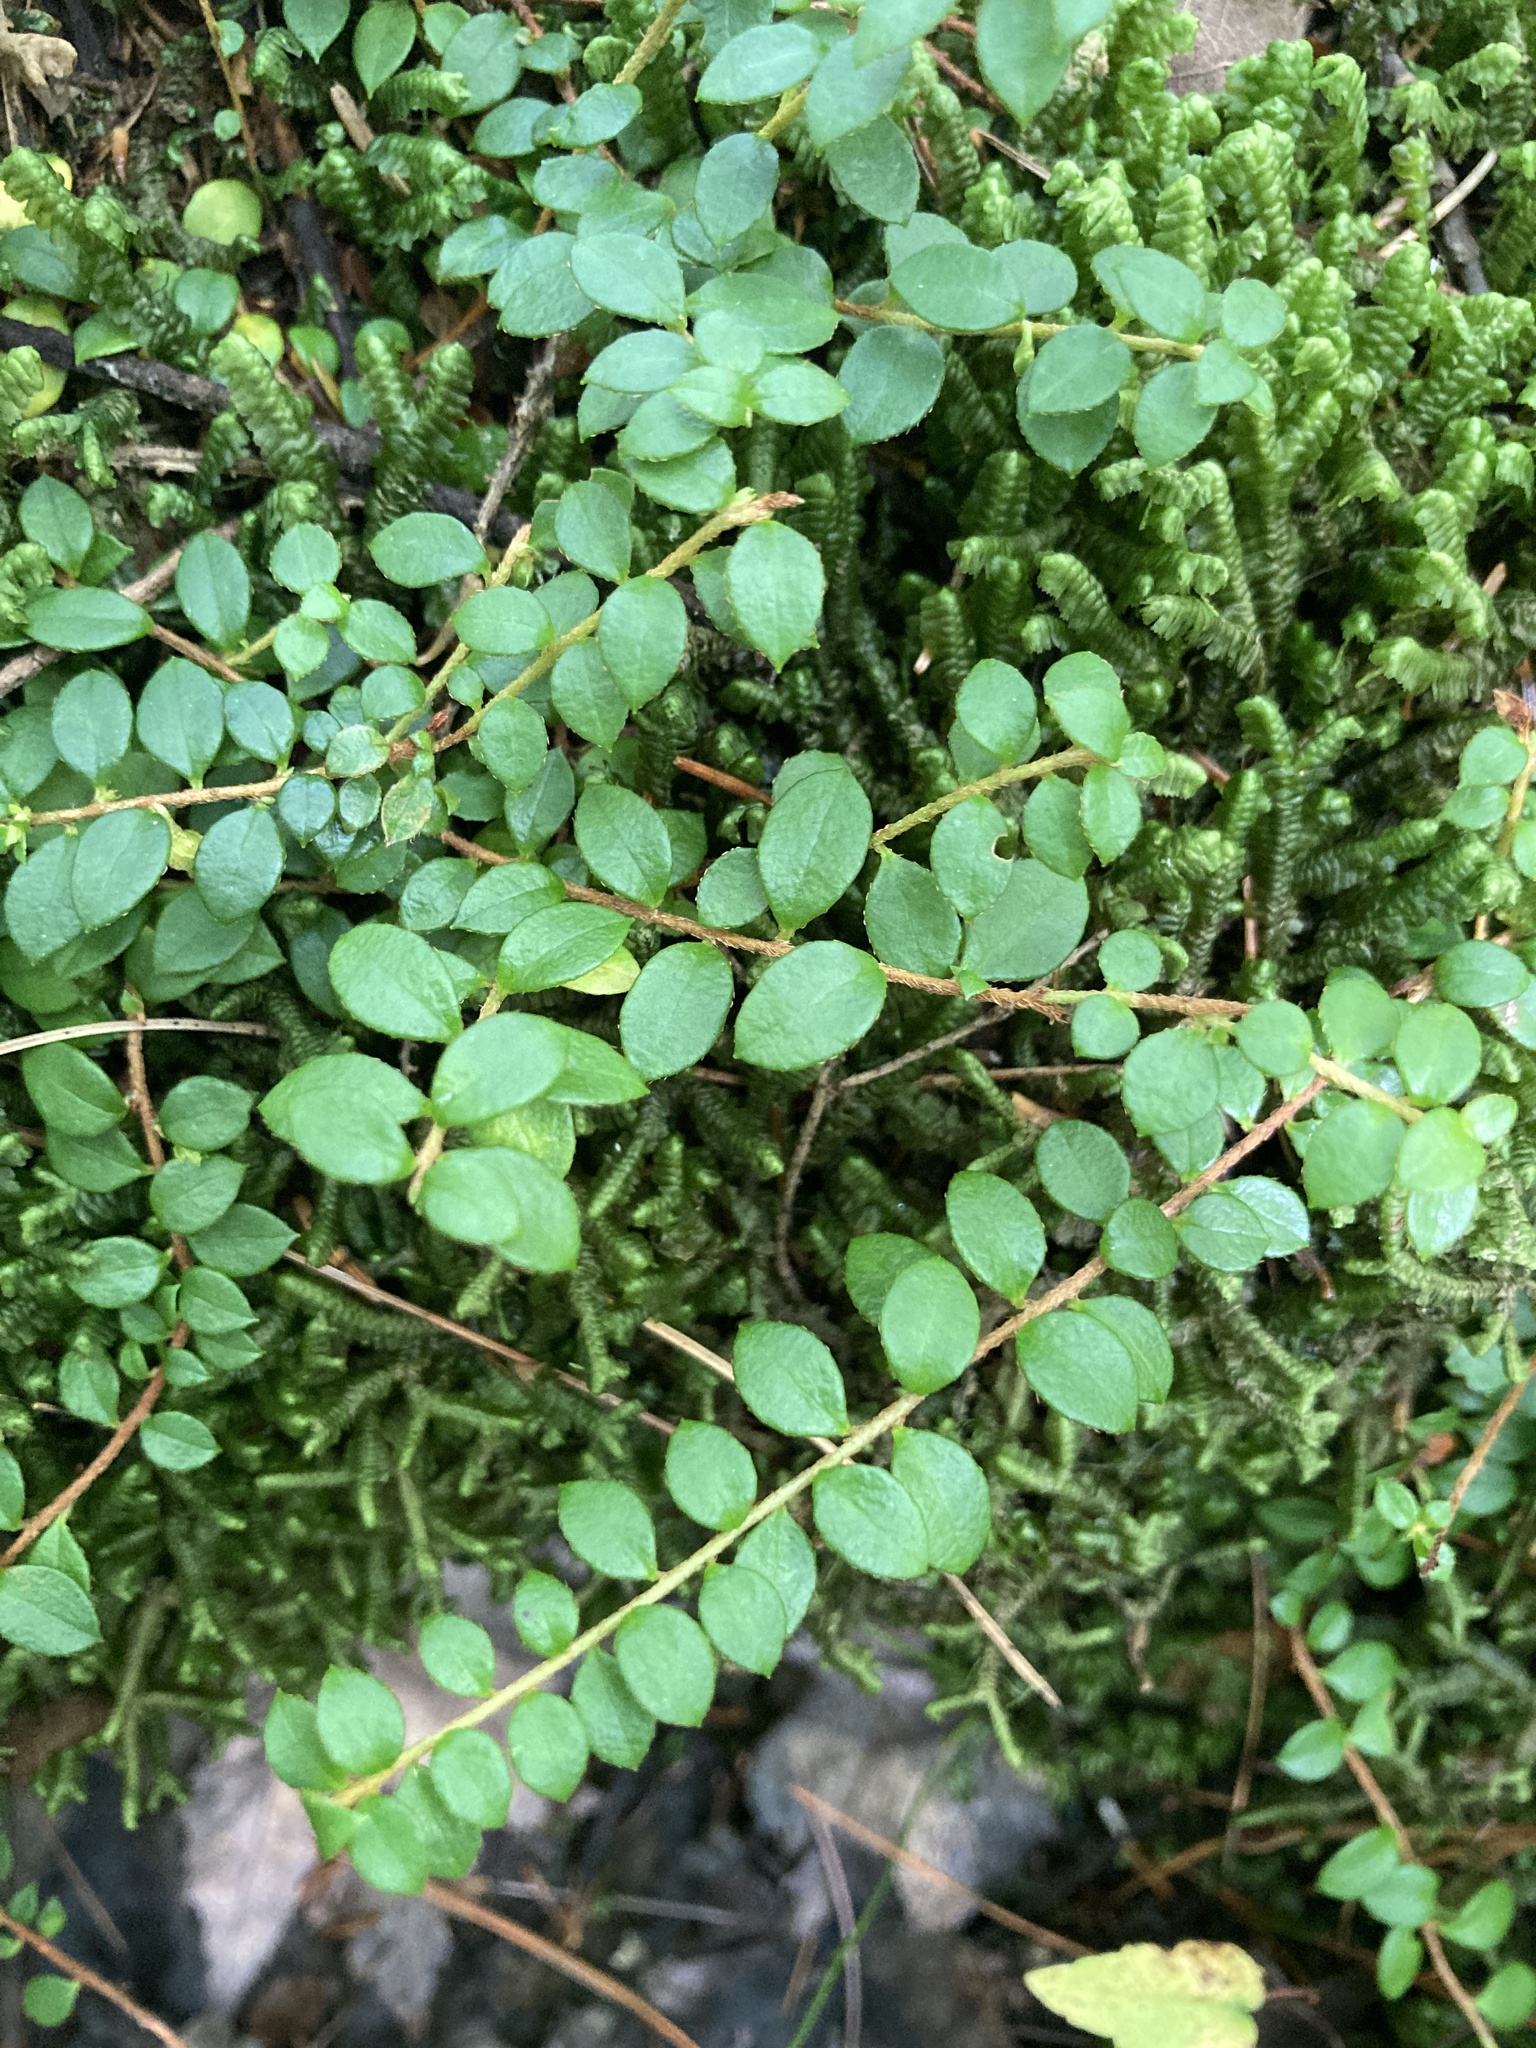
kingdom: Plantae
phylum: Tracheophyta
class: Magnoliopsida
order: Ericales
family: Ericaceae
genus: Gaultheria
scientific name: Gaultheria hispidula
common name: Cancer wintergreen
